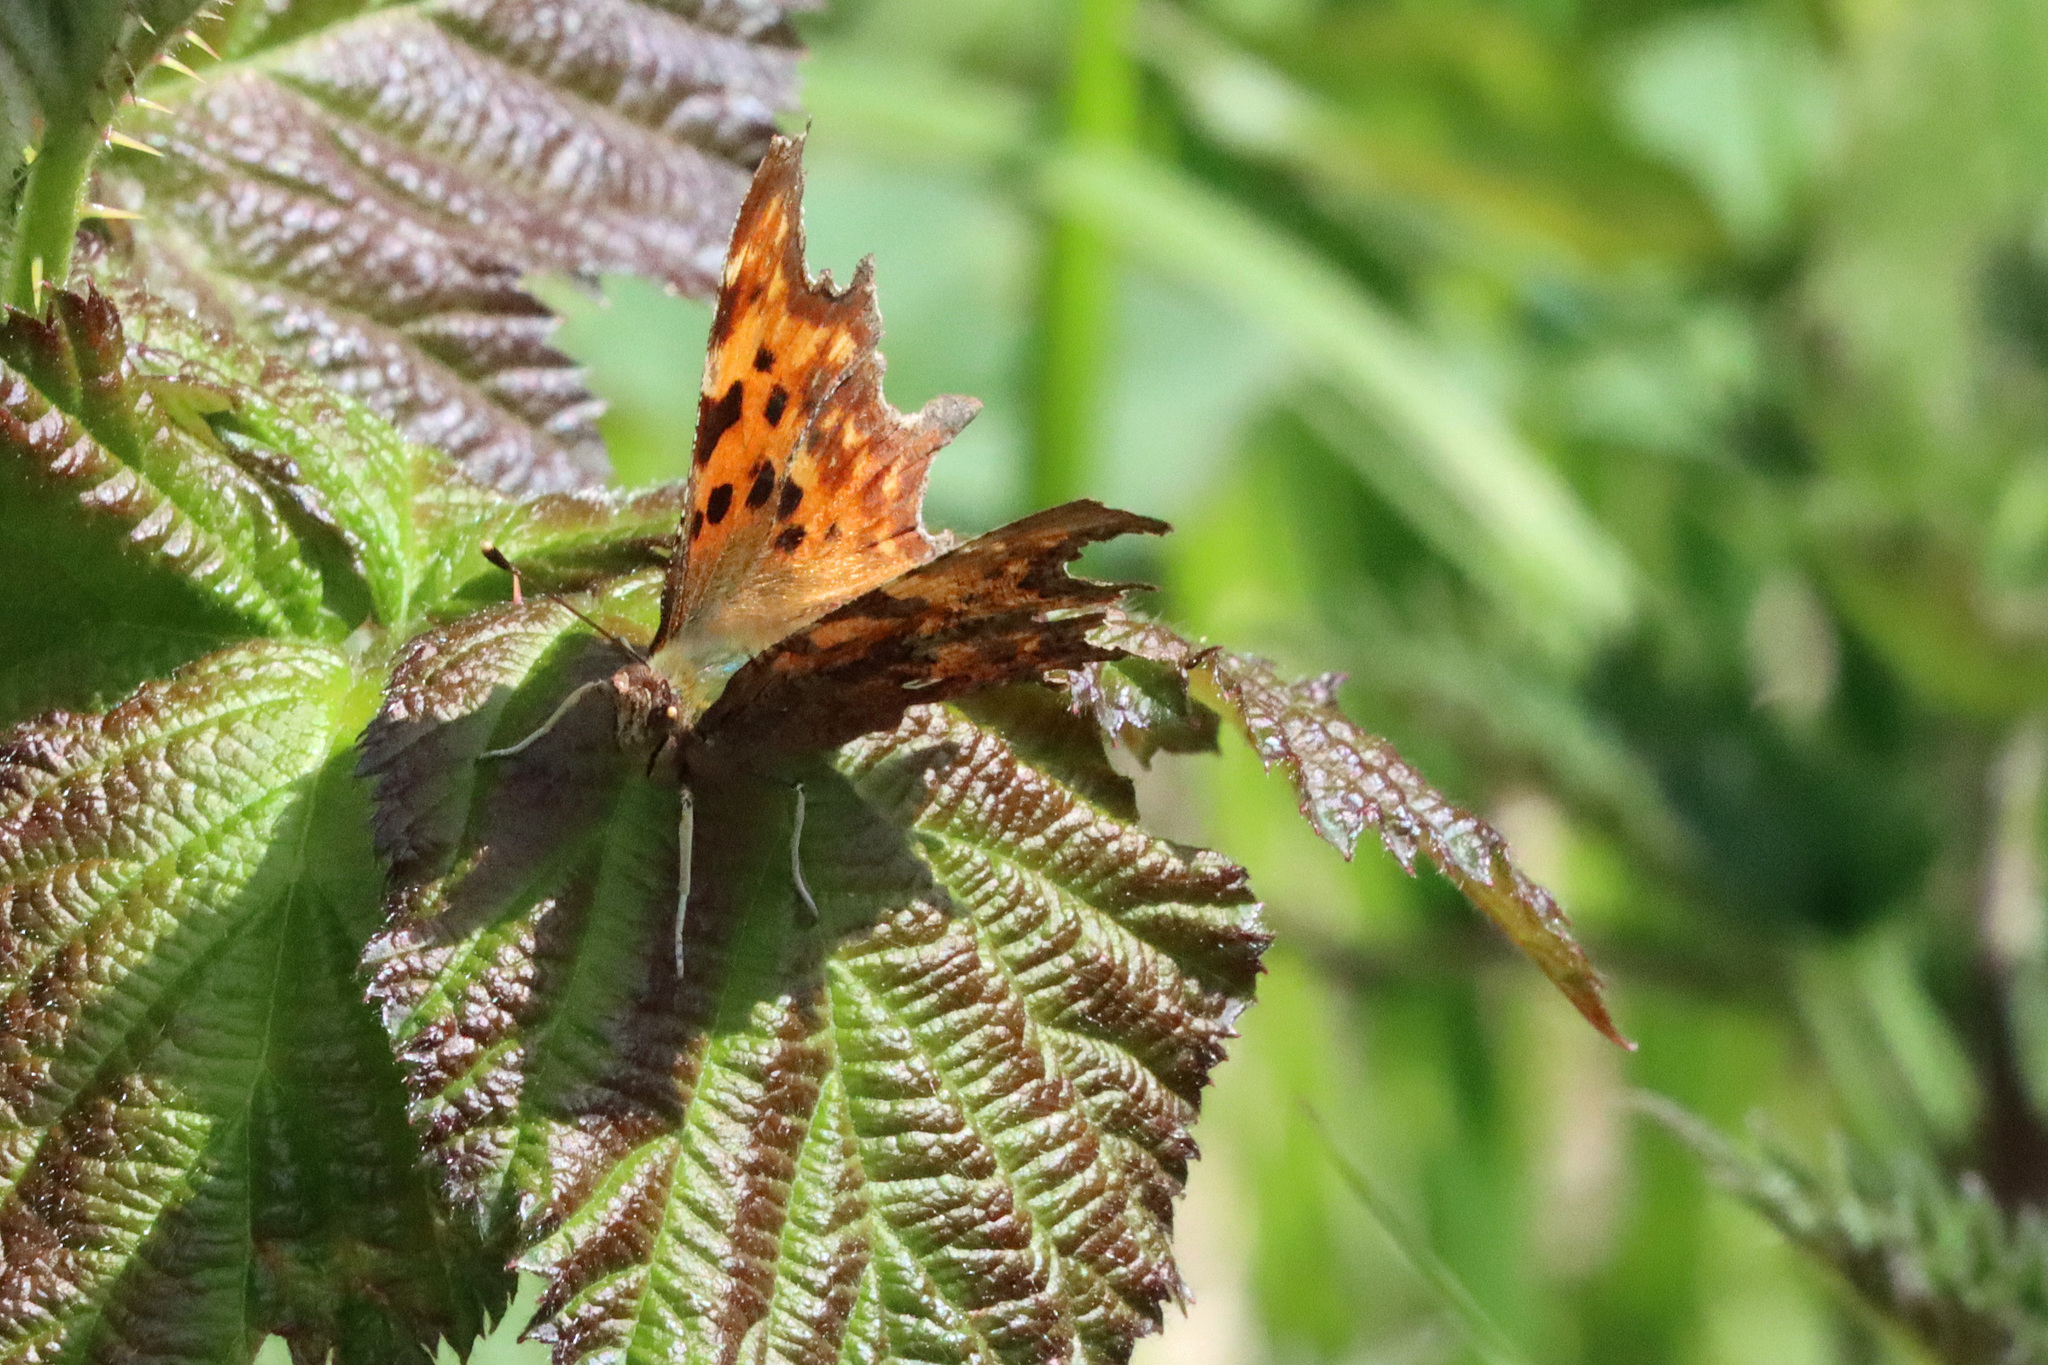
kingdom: Animalia
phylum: Arthropoda
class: Insecta
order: Lepidoptera
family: Nymphalidae
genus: Polygonia
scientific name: Polygonia c-album
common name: Comma
